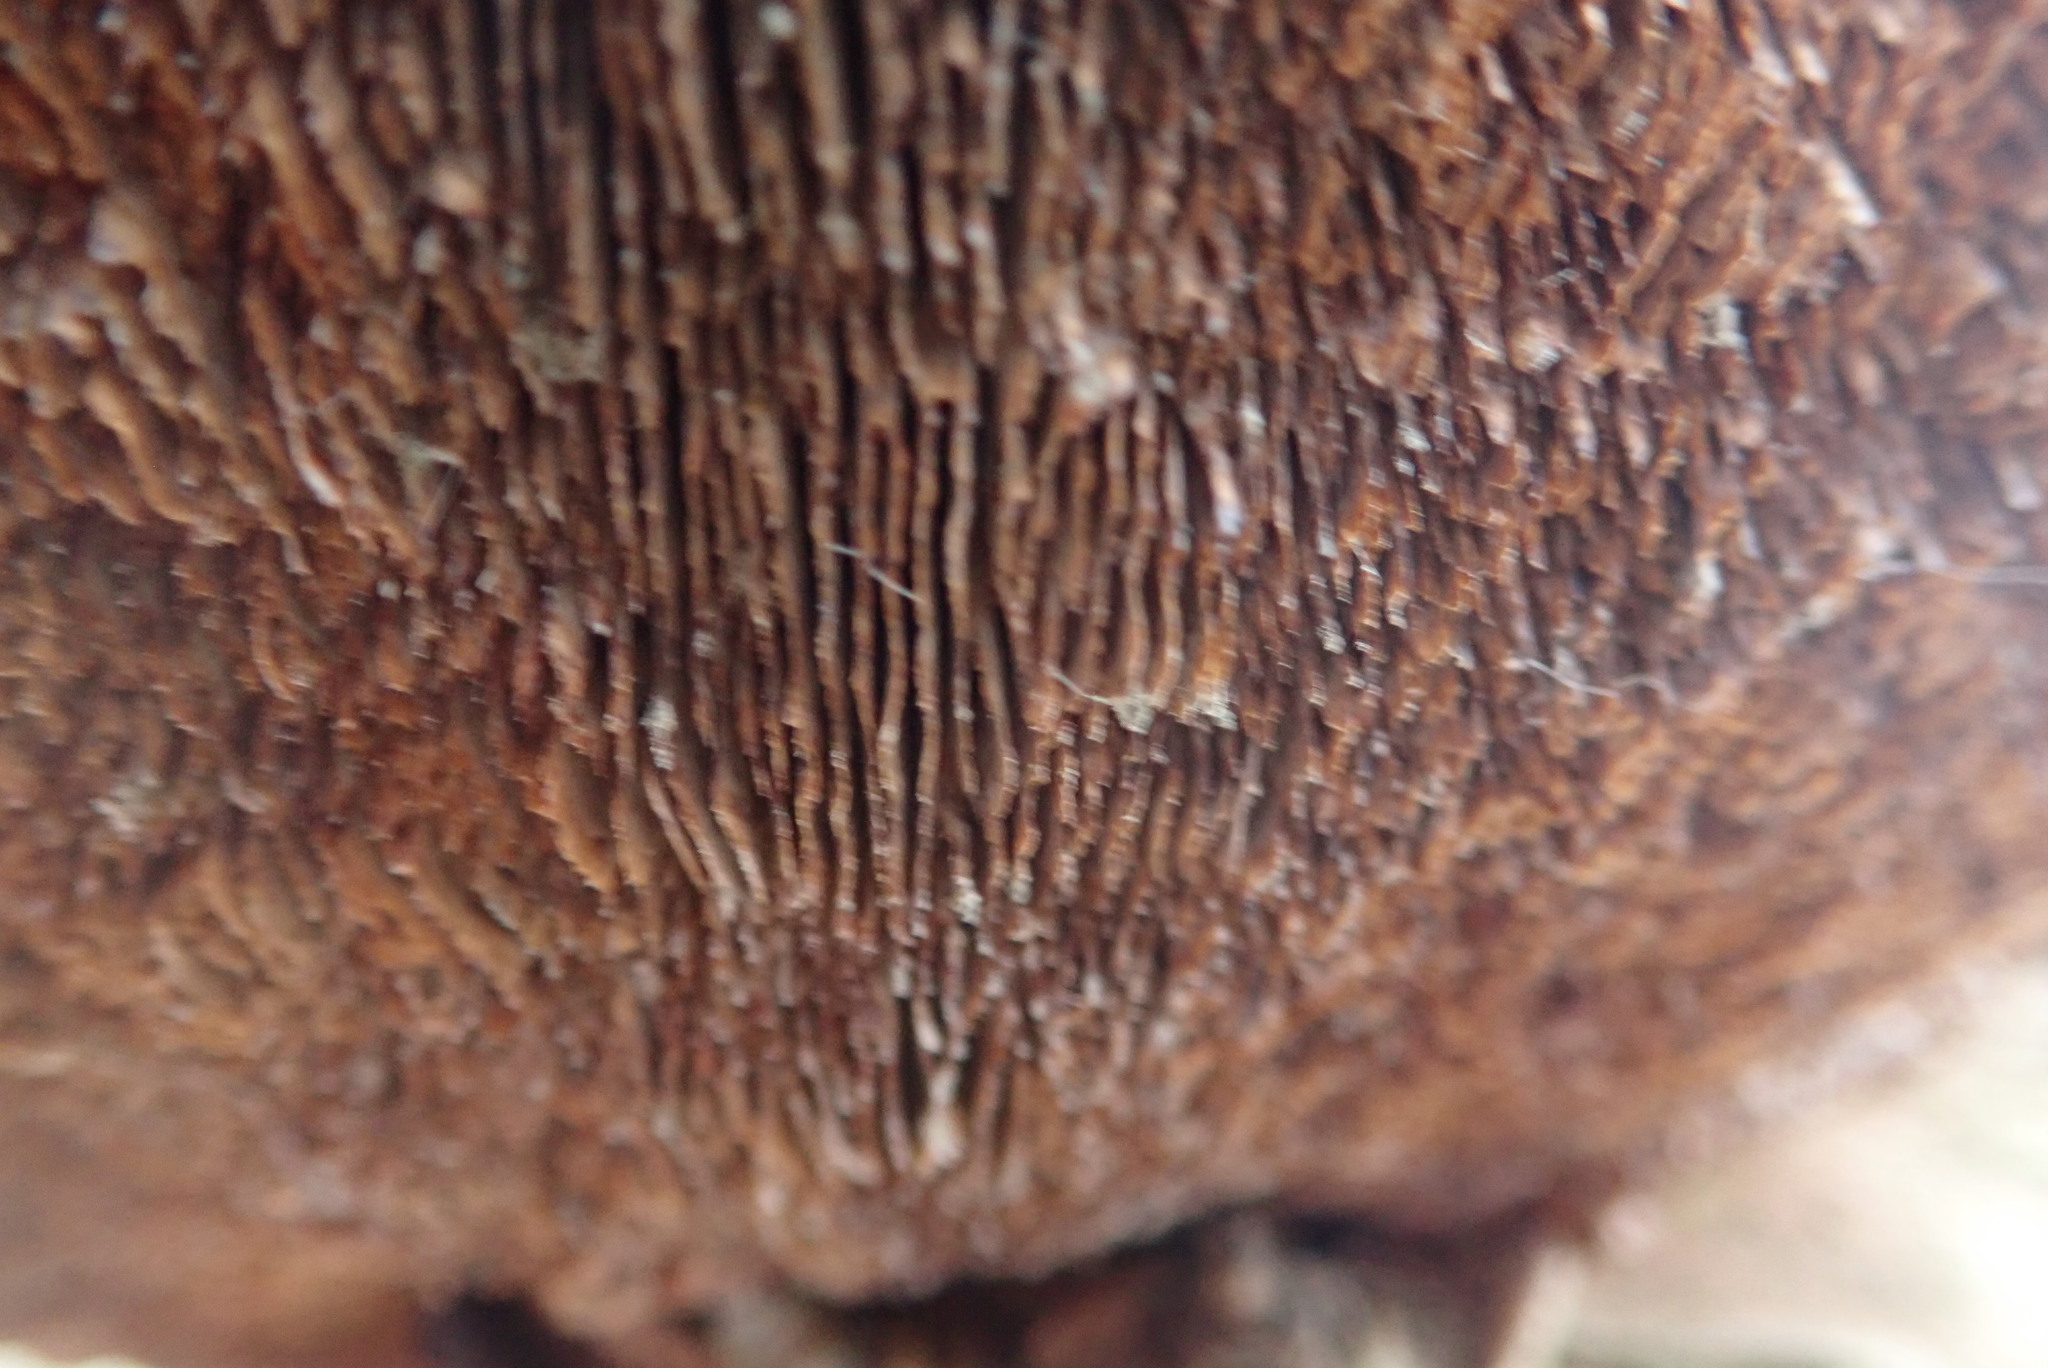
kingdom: Fungi
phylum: Basidiomycota
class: Agaricomycetes
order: Polyporales
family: Polyporaceae
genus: Daedaleopsis
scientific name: Daedaleopsis confragosa
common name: Blushing bracket
